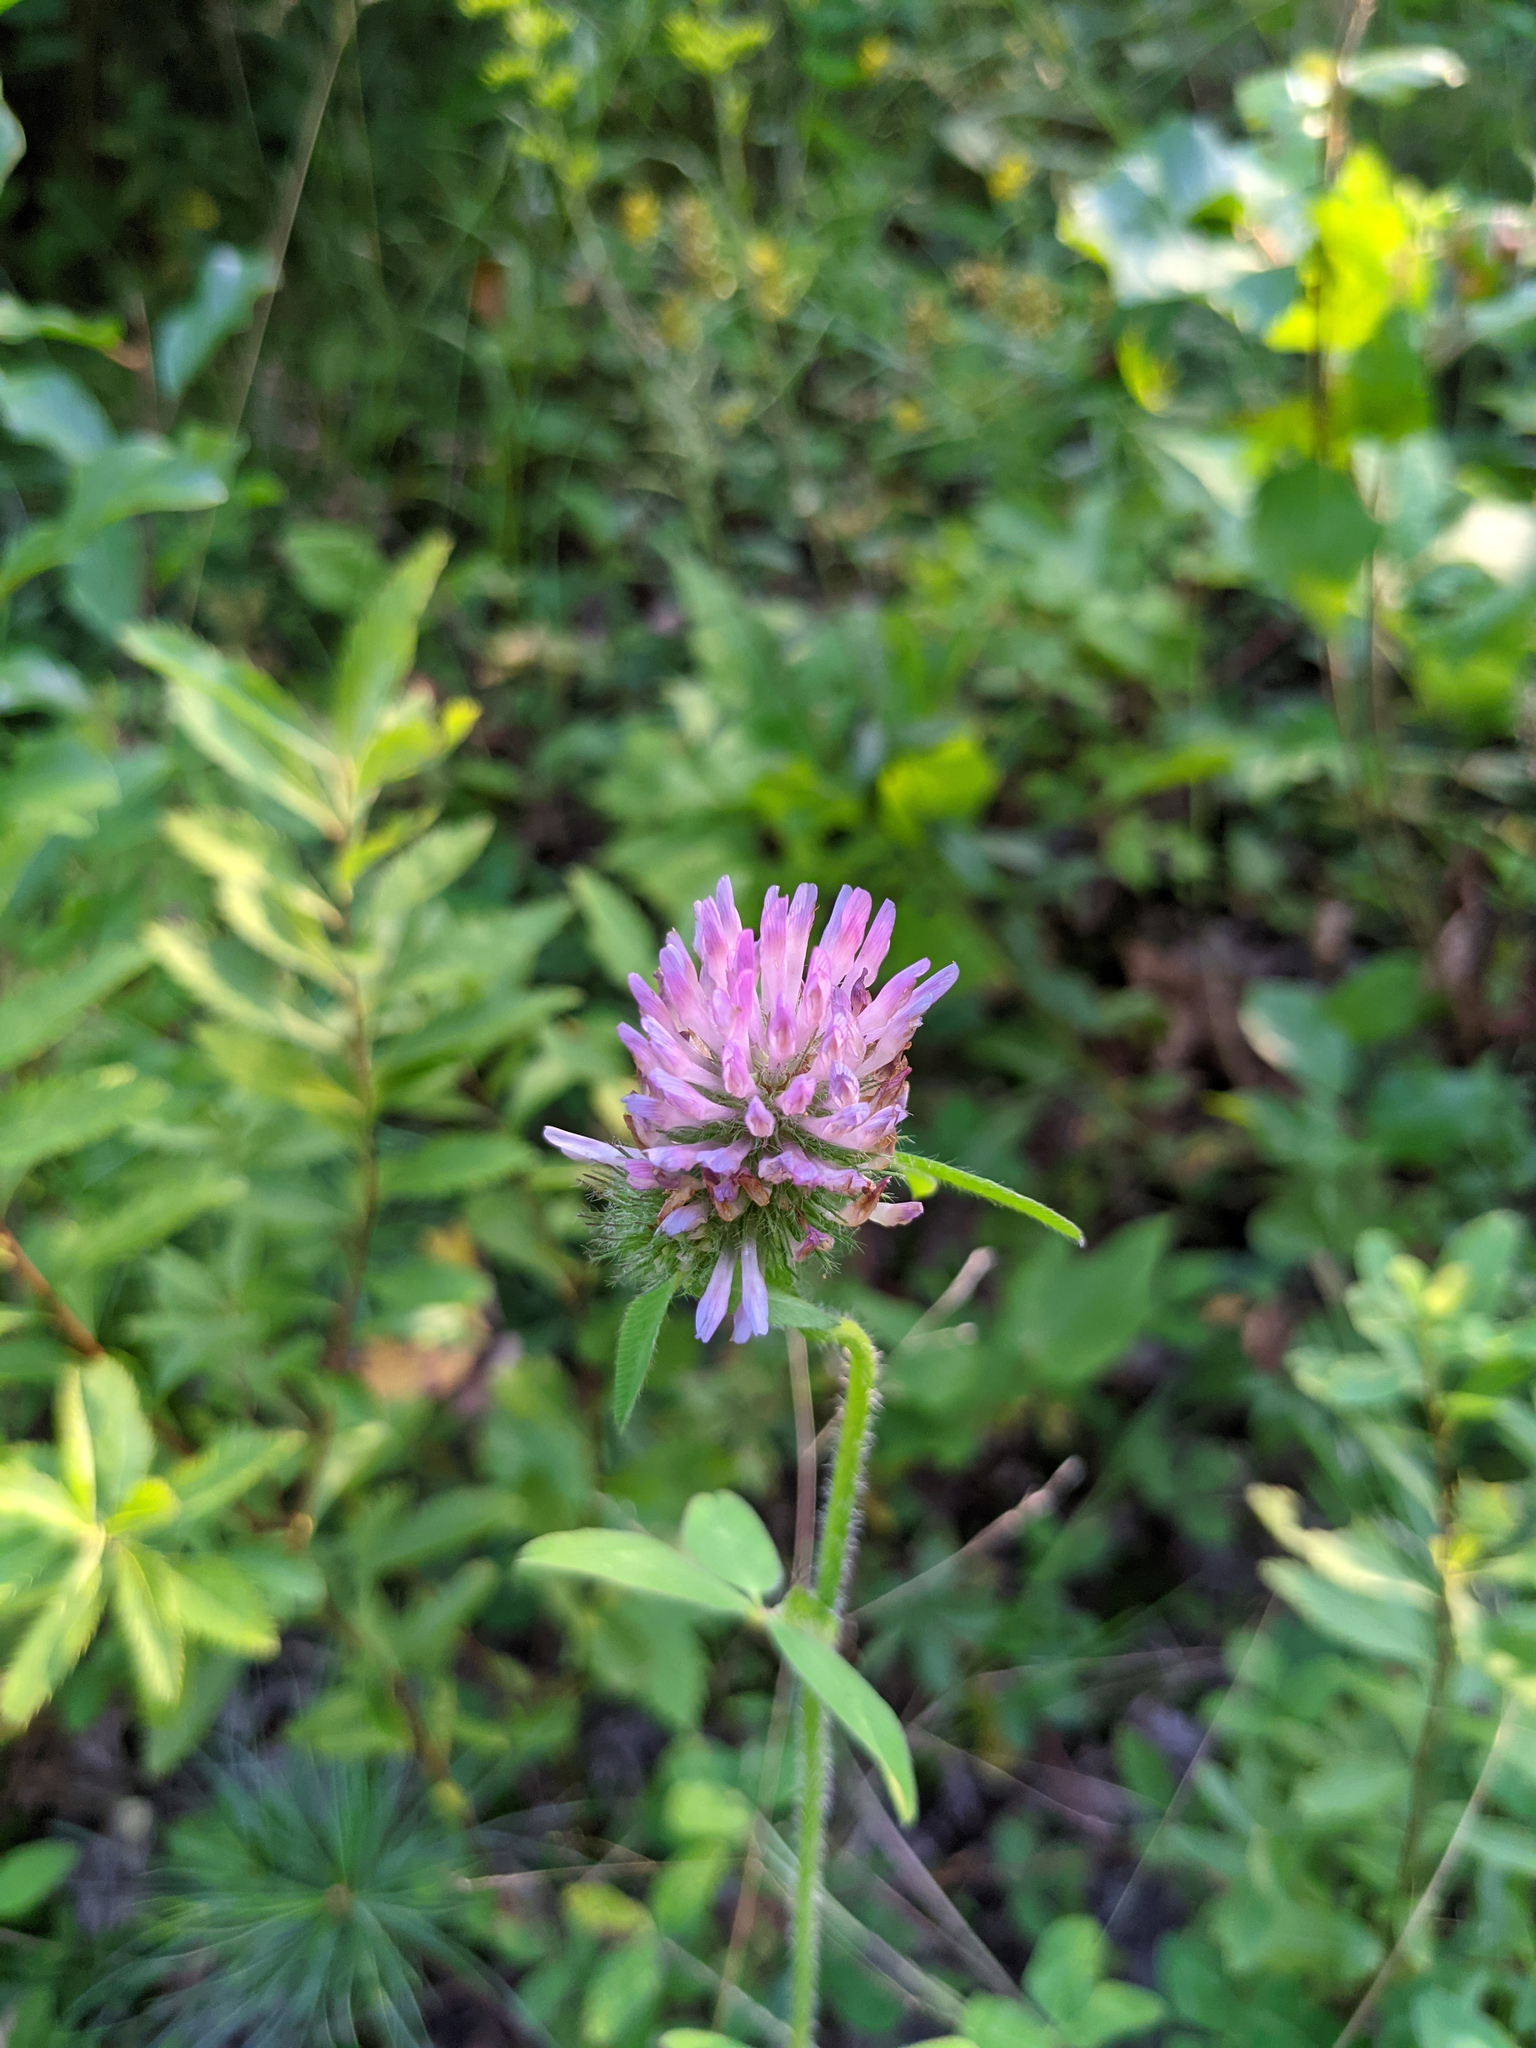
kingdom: Plantae
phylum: Tracheophyta
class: Magnoliopsida
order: Fabales
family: Fabaceae
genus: Trifolium
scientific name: Trifolium pratense
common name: Red clover
